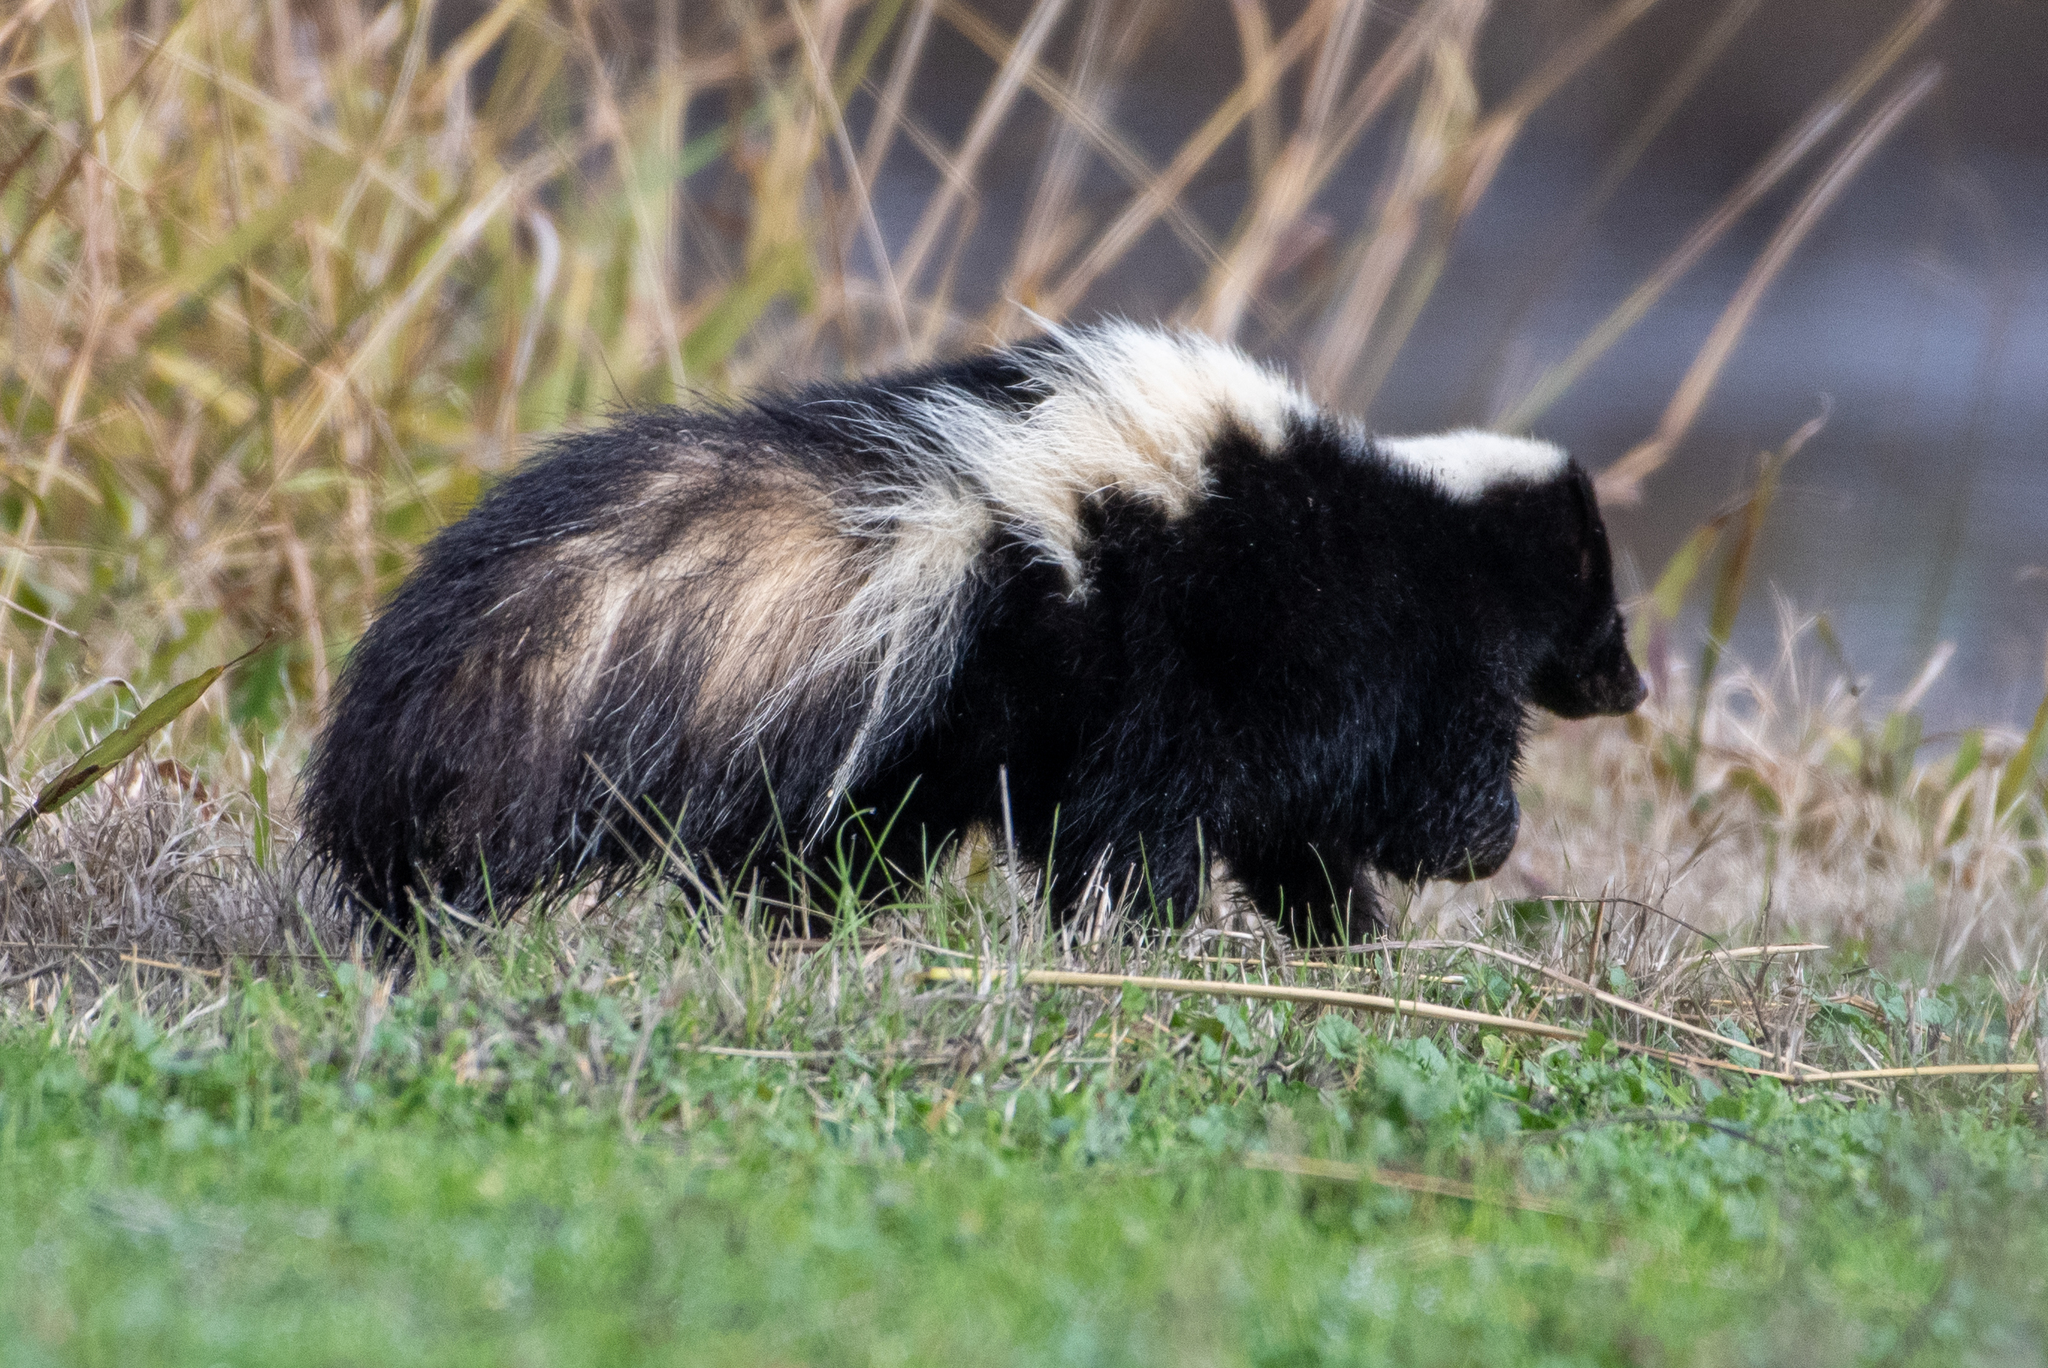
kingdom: Animalia
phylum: Chordata
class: Mammalia
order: Carnivora
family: Mephitidae
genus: Mephitis
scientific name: Mephitis mephitis
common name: Striped skunk
